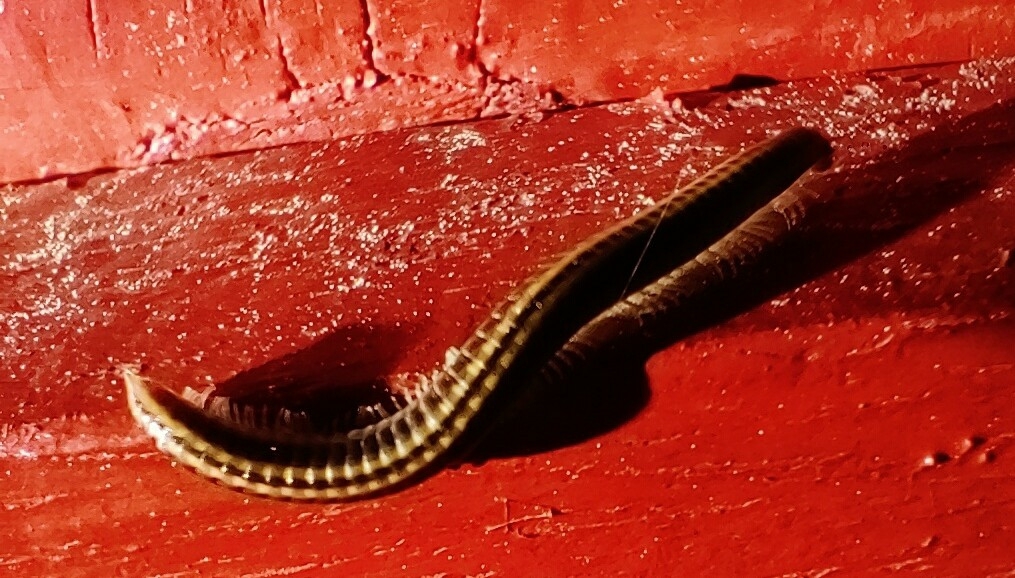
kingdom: Animalia
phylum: Arthropoda
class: Diplopoda
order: Julida
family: Julidae
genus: Ommatoiulus
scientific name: Ommatoiulus sabulosus
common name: Striped millipede
